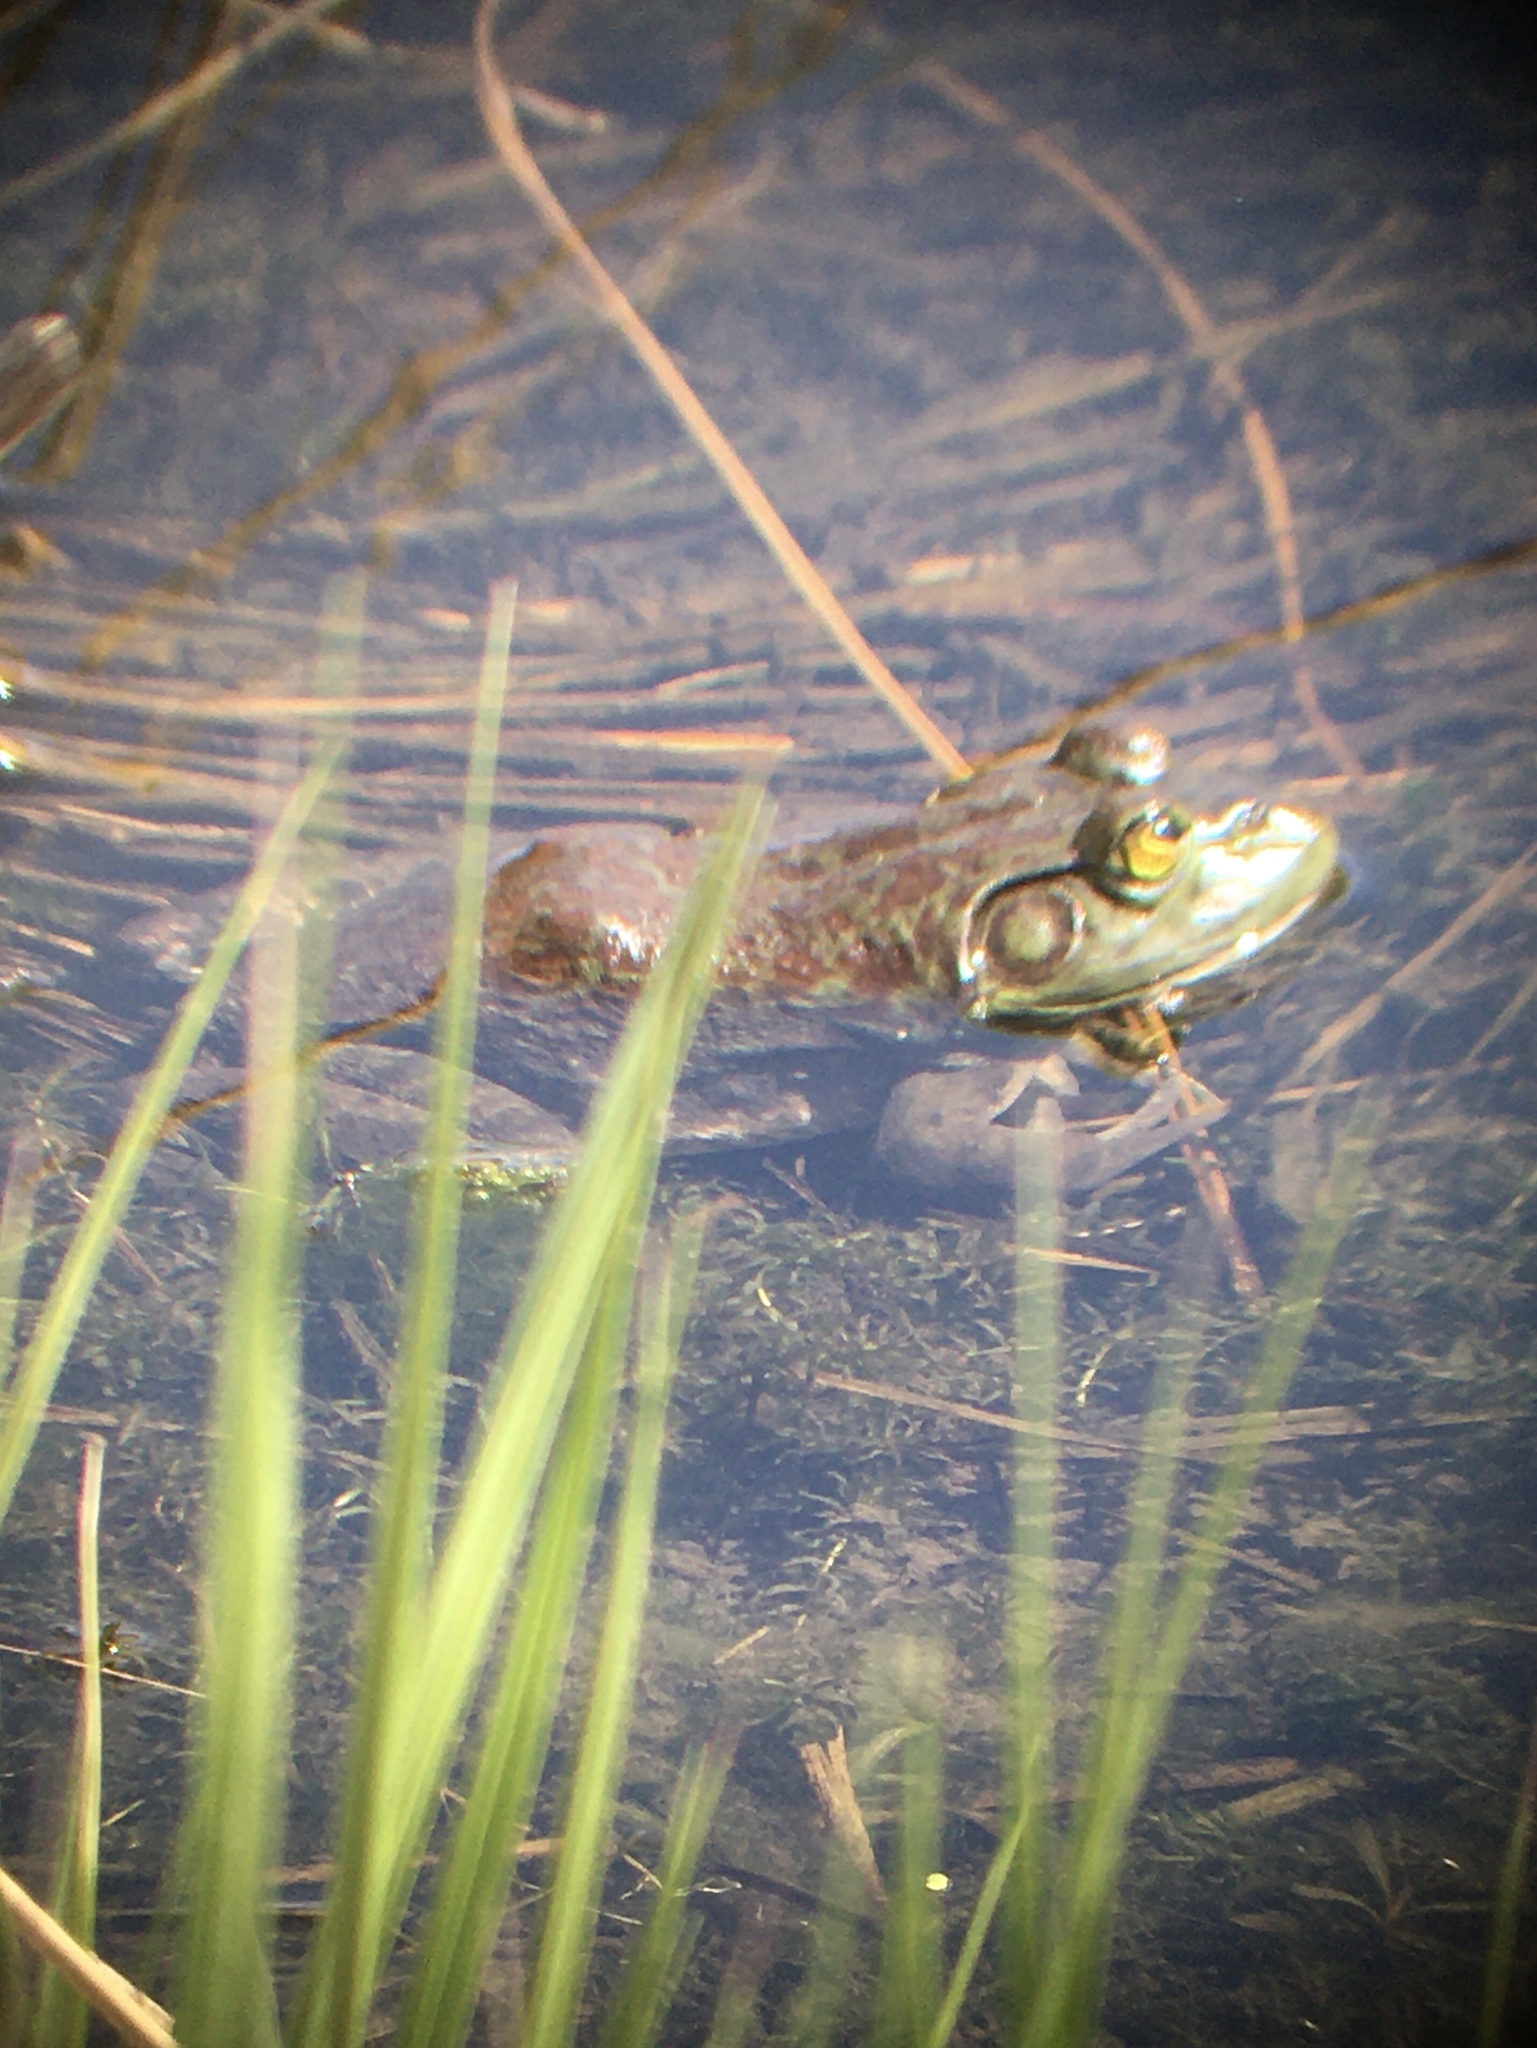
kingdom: Animalia
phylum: Chordata
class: Amphibia
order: Anura
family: Ranidae
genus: Lithobates
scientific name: Lithobates catesbeianus
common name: American bullfrog
